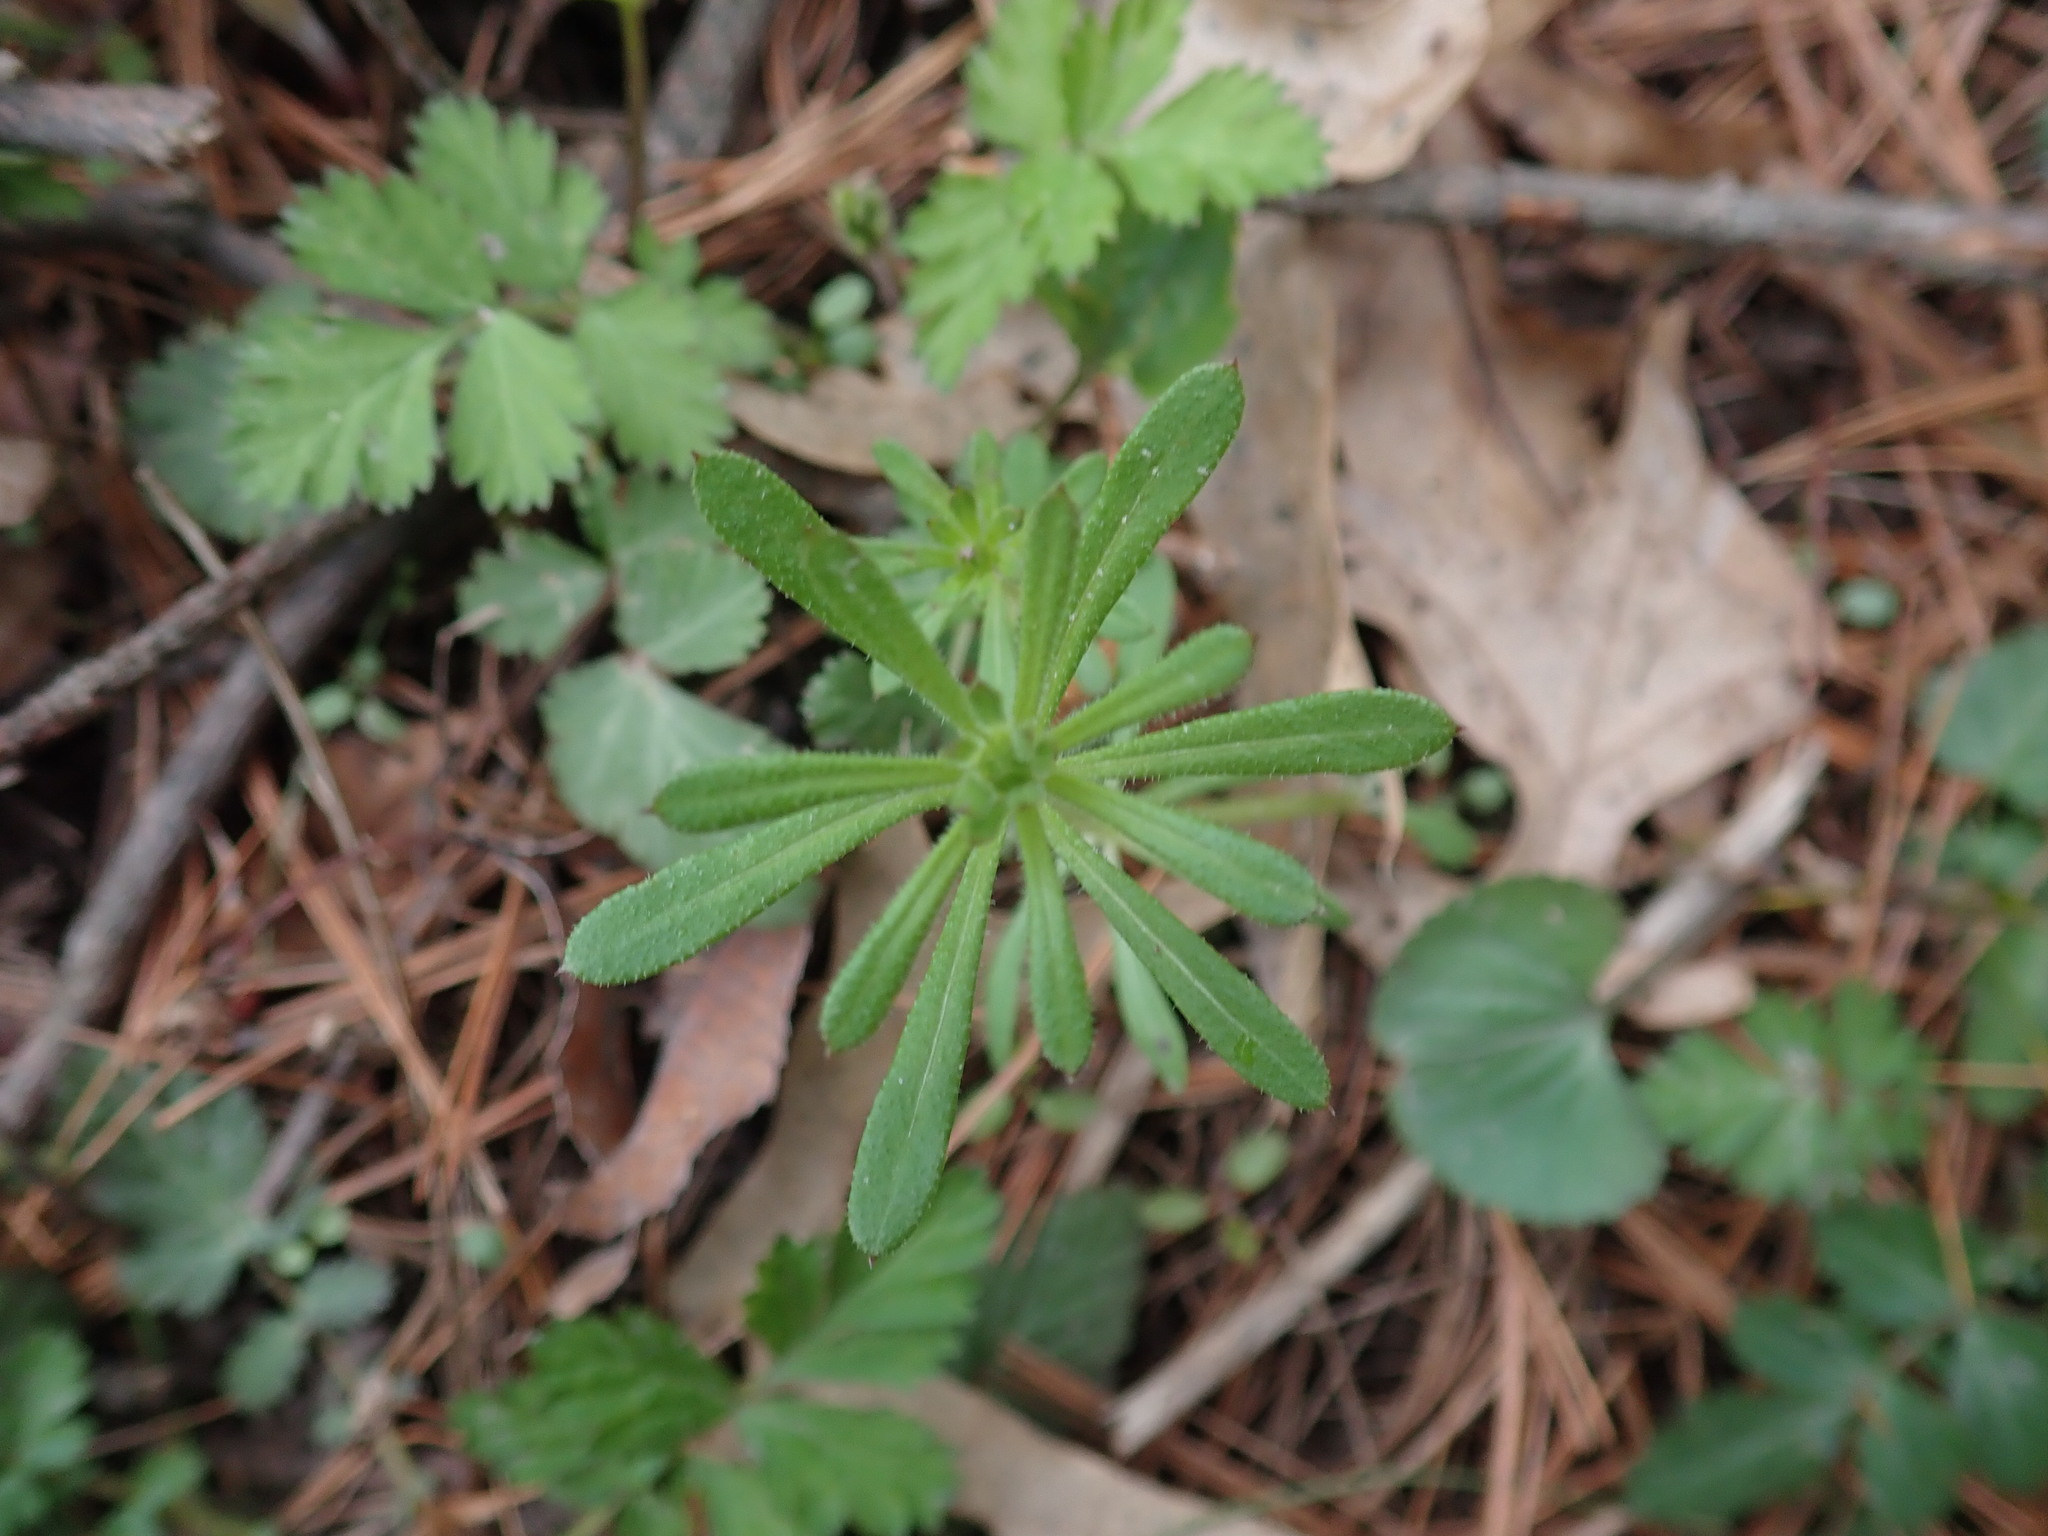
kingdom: Plantae
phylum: Tracheophyta
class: Magnoliopsida
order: Gentianales
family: Rubiaceae
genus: Galium
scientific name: Galium aparine
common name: Cleavers
